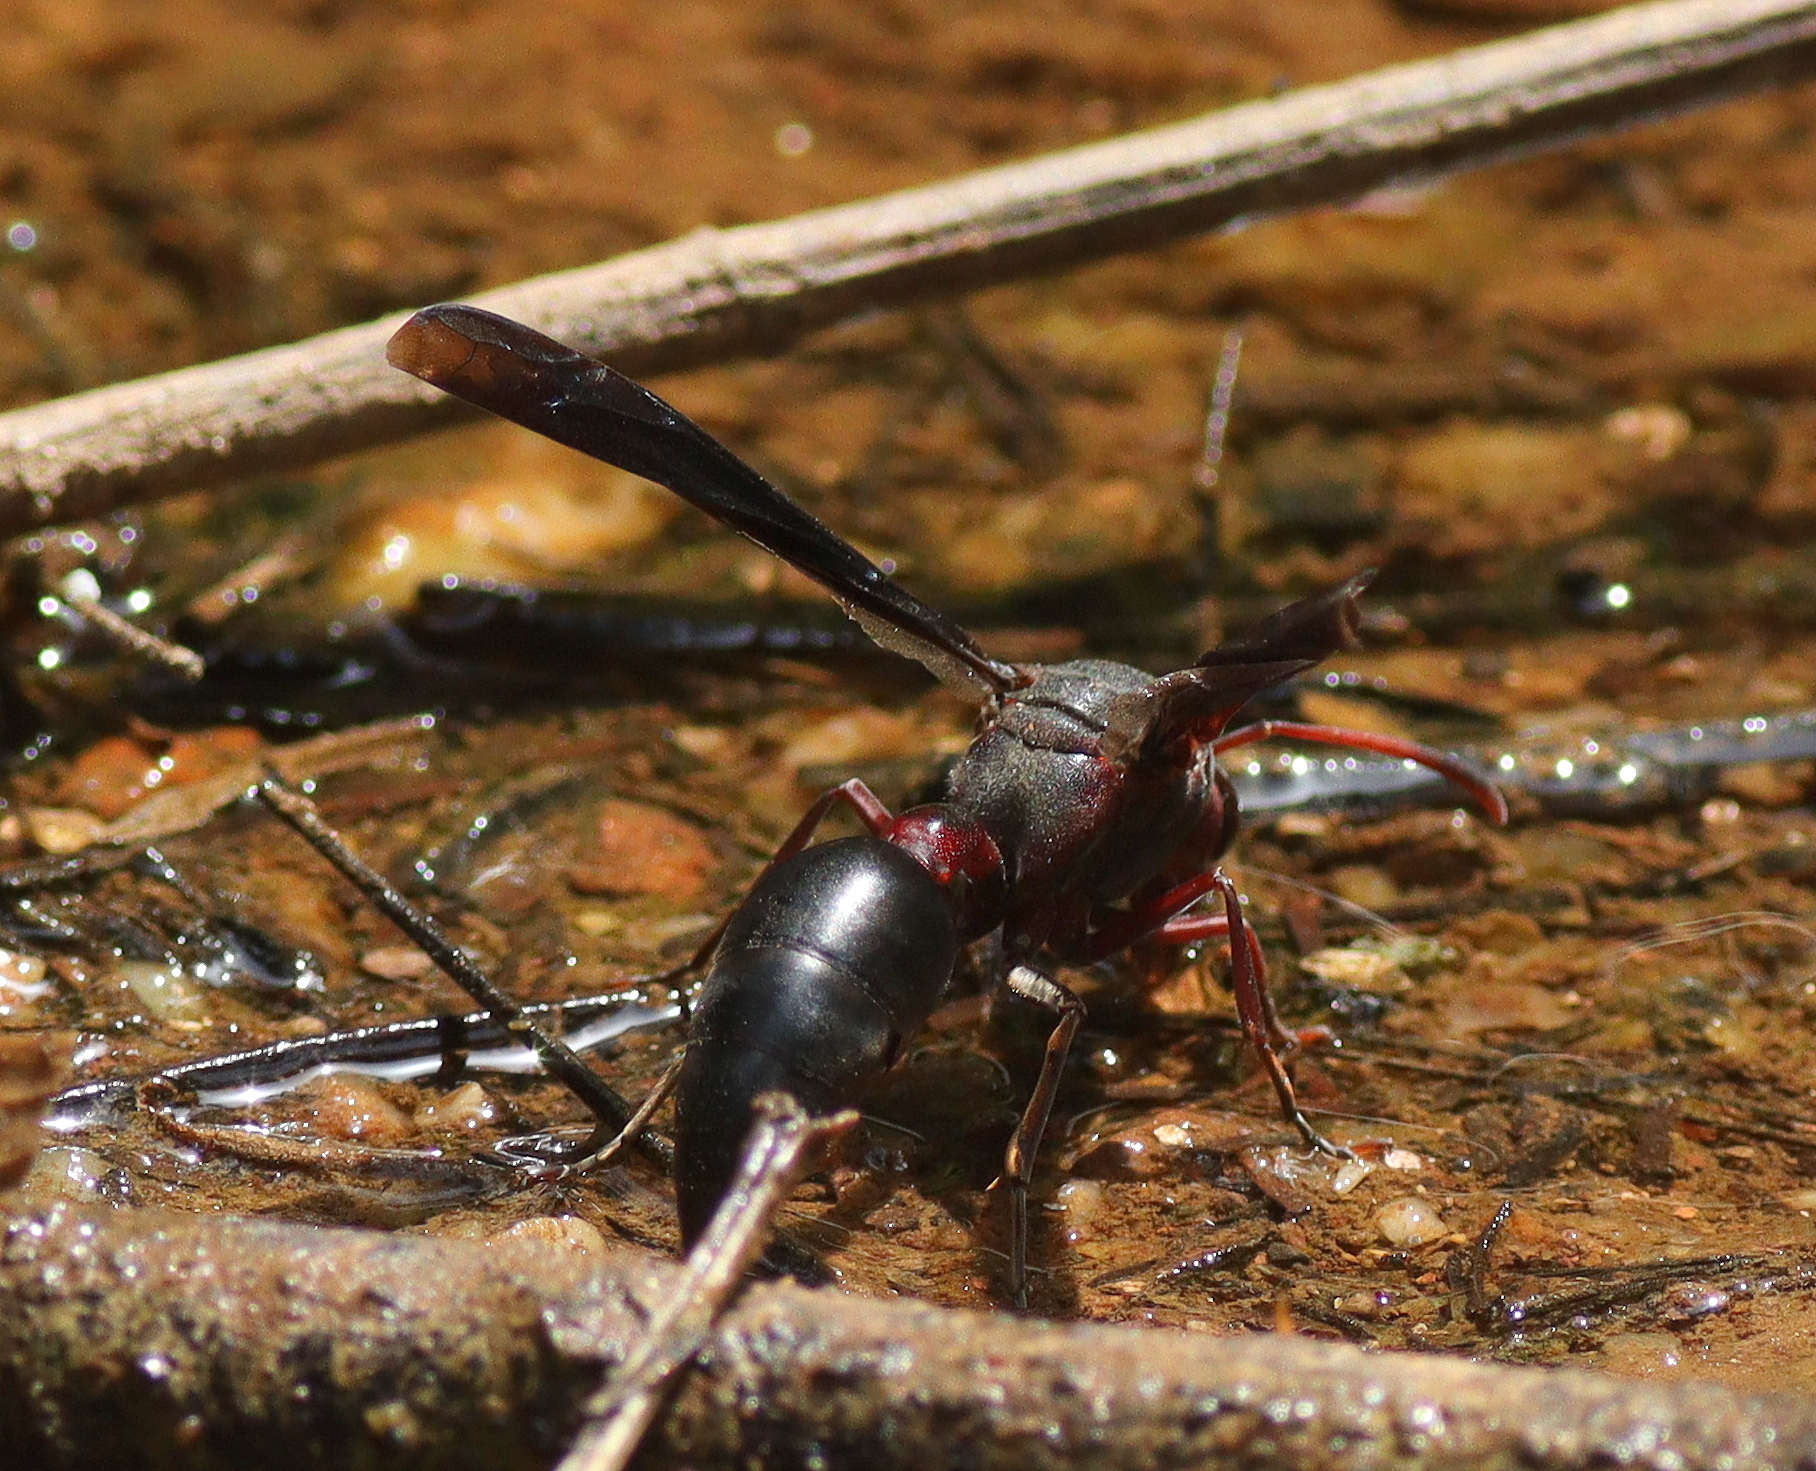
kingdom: Animalia
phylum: Arthropoda
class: Insecta
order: Hymenoptera
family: Eumenidae
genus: Delta
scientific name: Delta emarginatum
